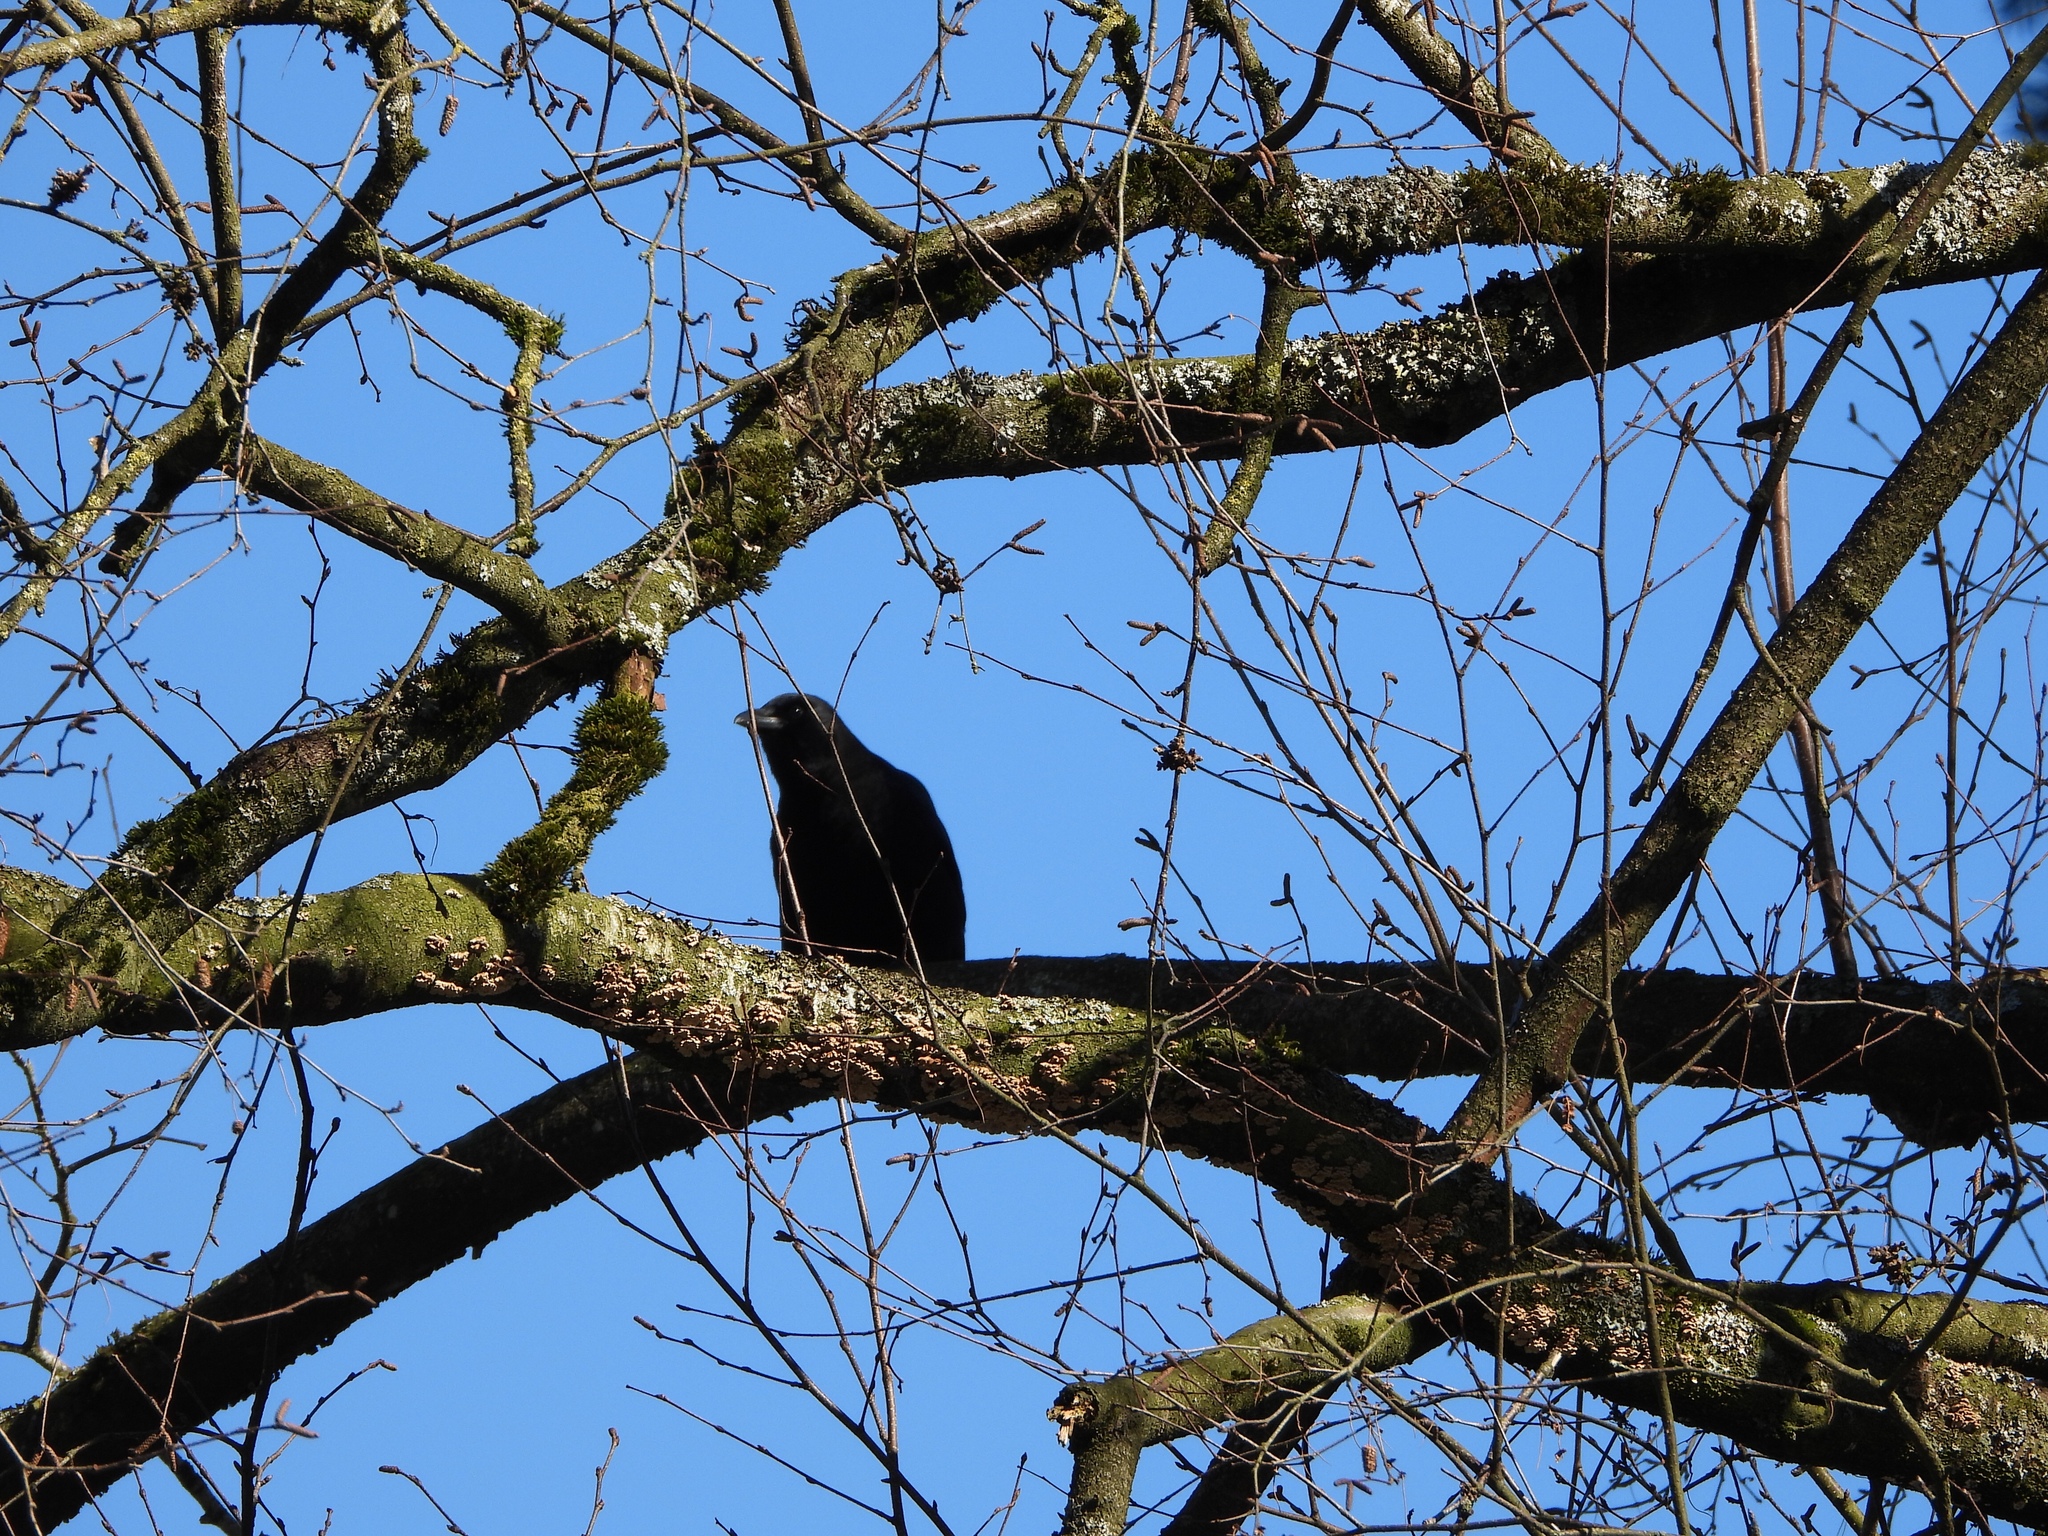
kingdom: Animalia
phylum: Chordata
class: Aves
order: Passeriformes
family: Corvidae
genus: Corvus
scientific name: Corvus brachyrhynchos
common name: American crow
